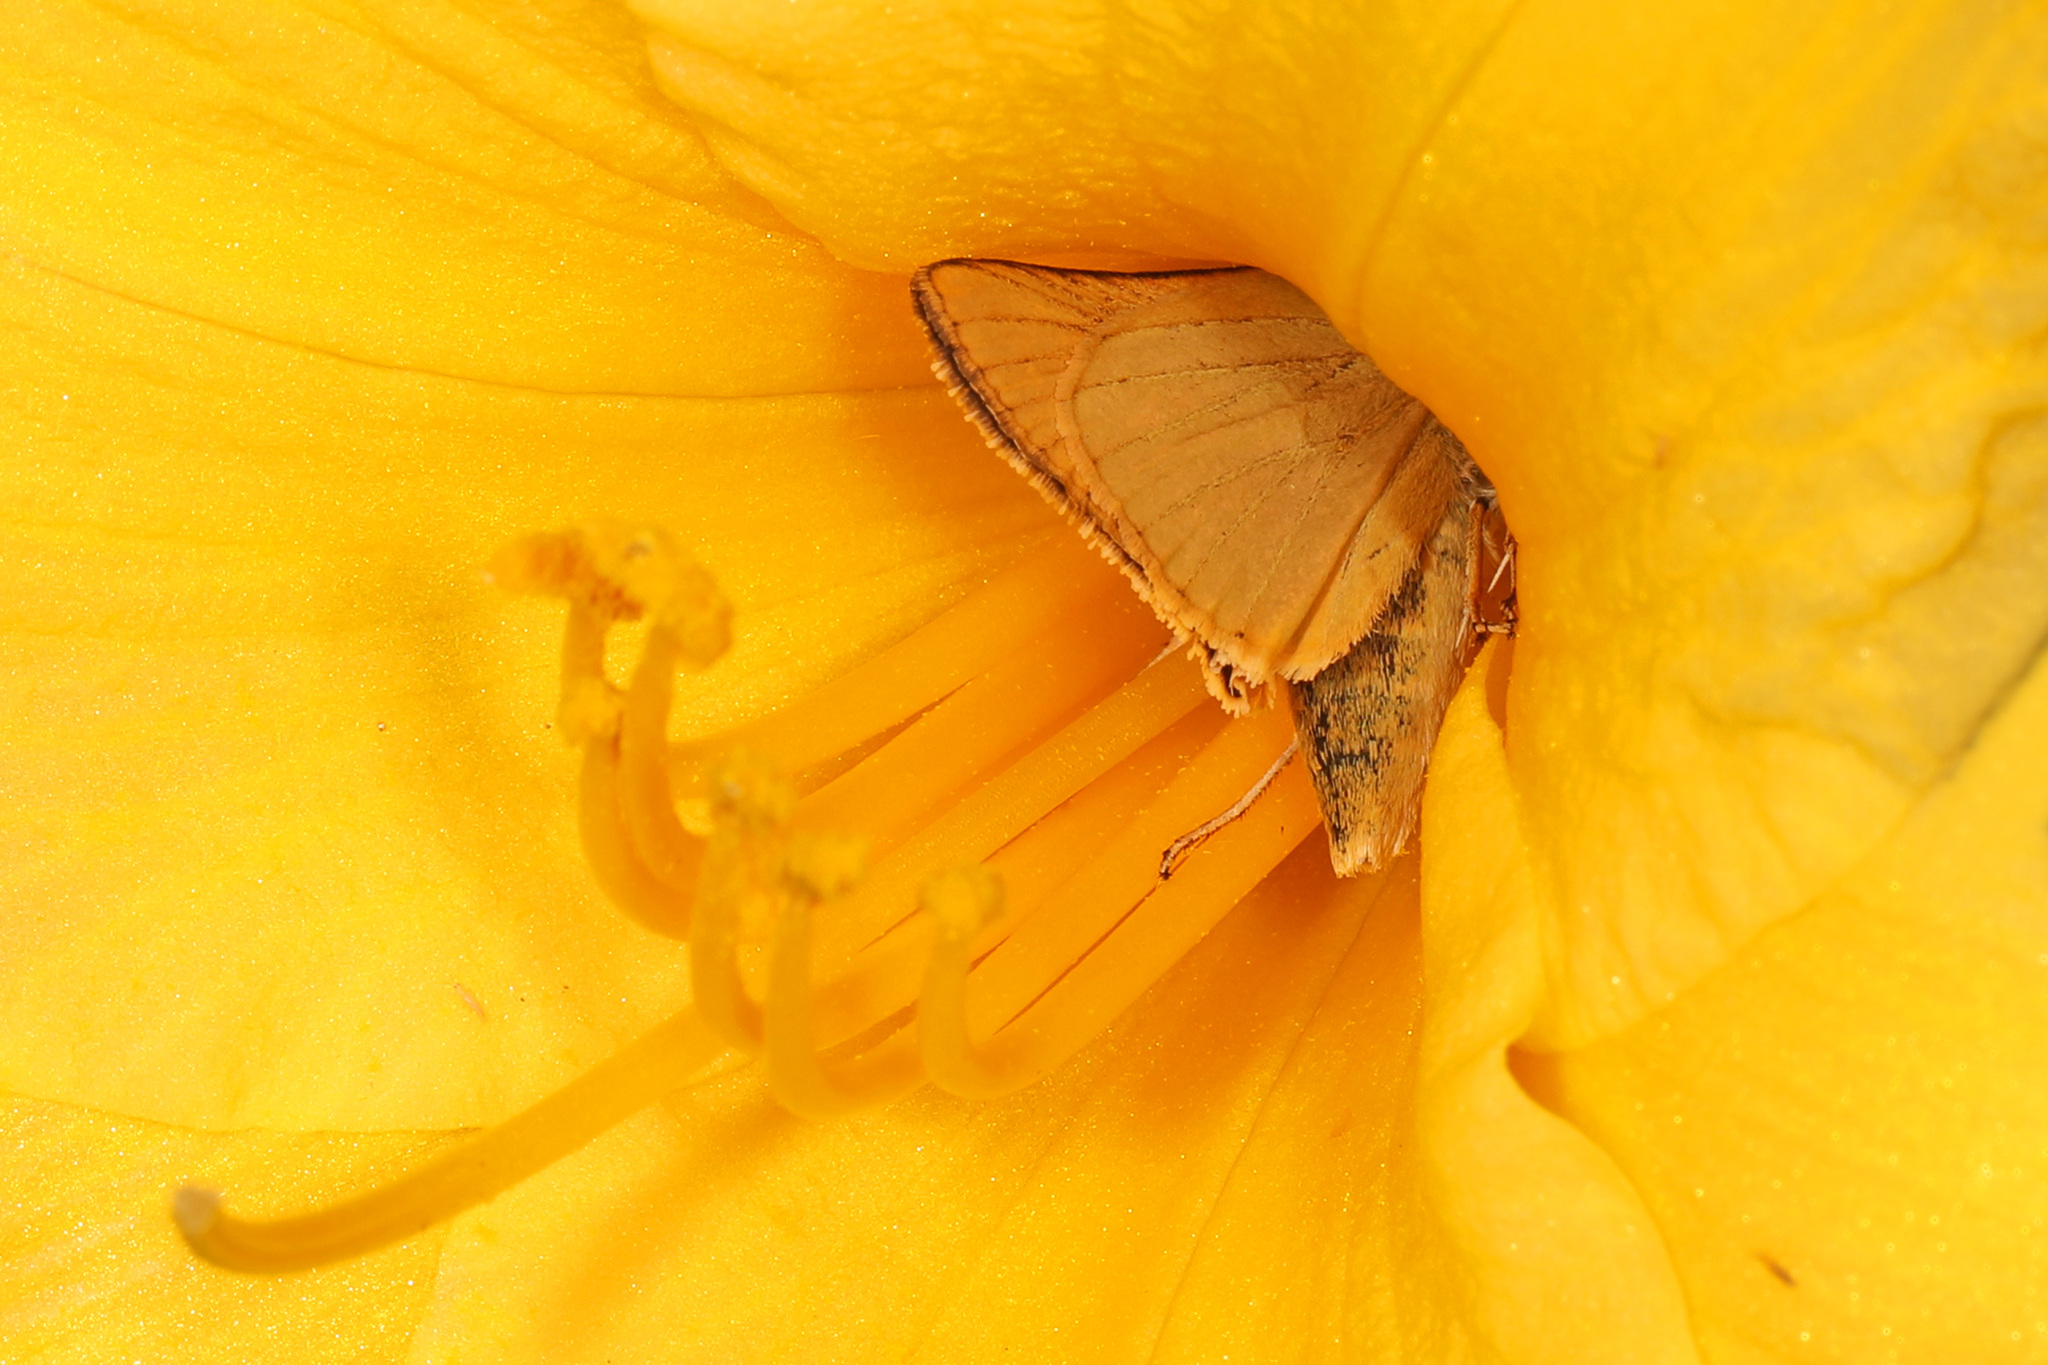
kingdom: Animalia
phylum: Arthropoda
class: Insecta
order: Lepidoptera
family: Hesperiidae
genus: Atrytone
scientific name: Atrytone delaware
